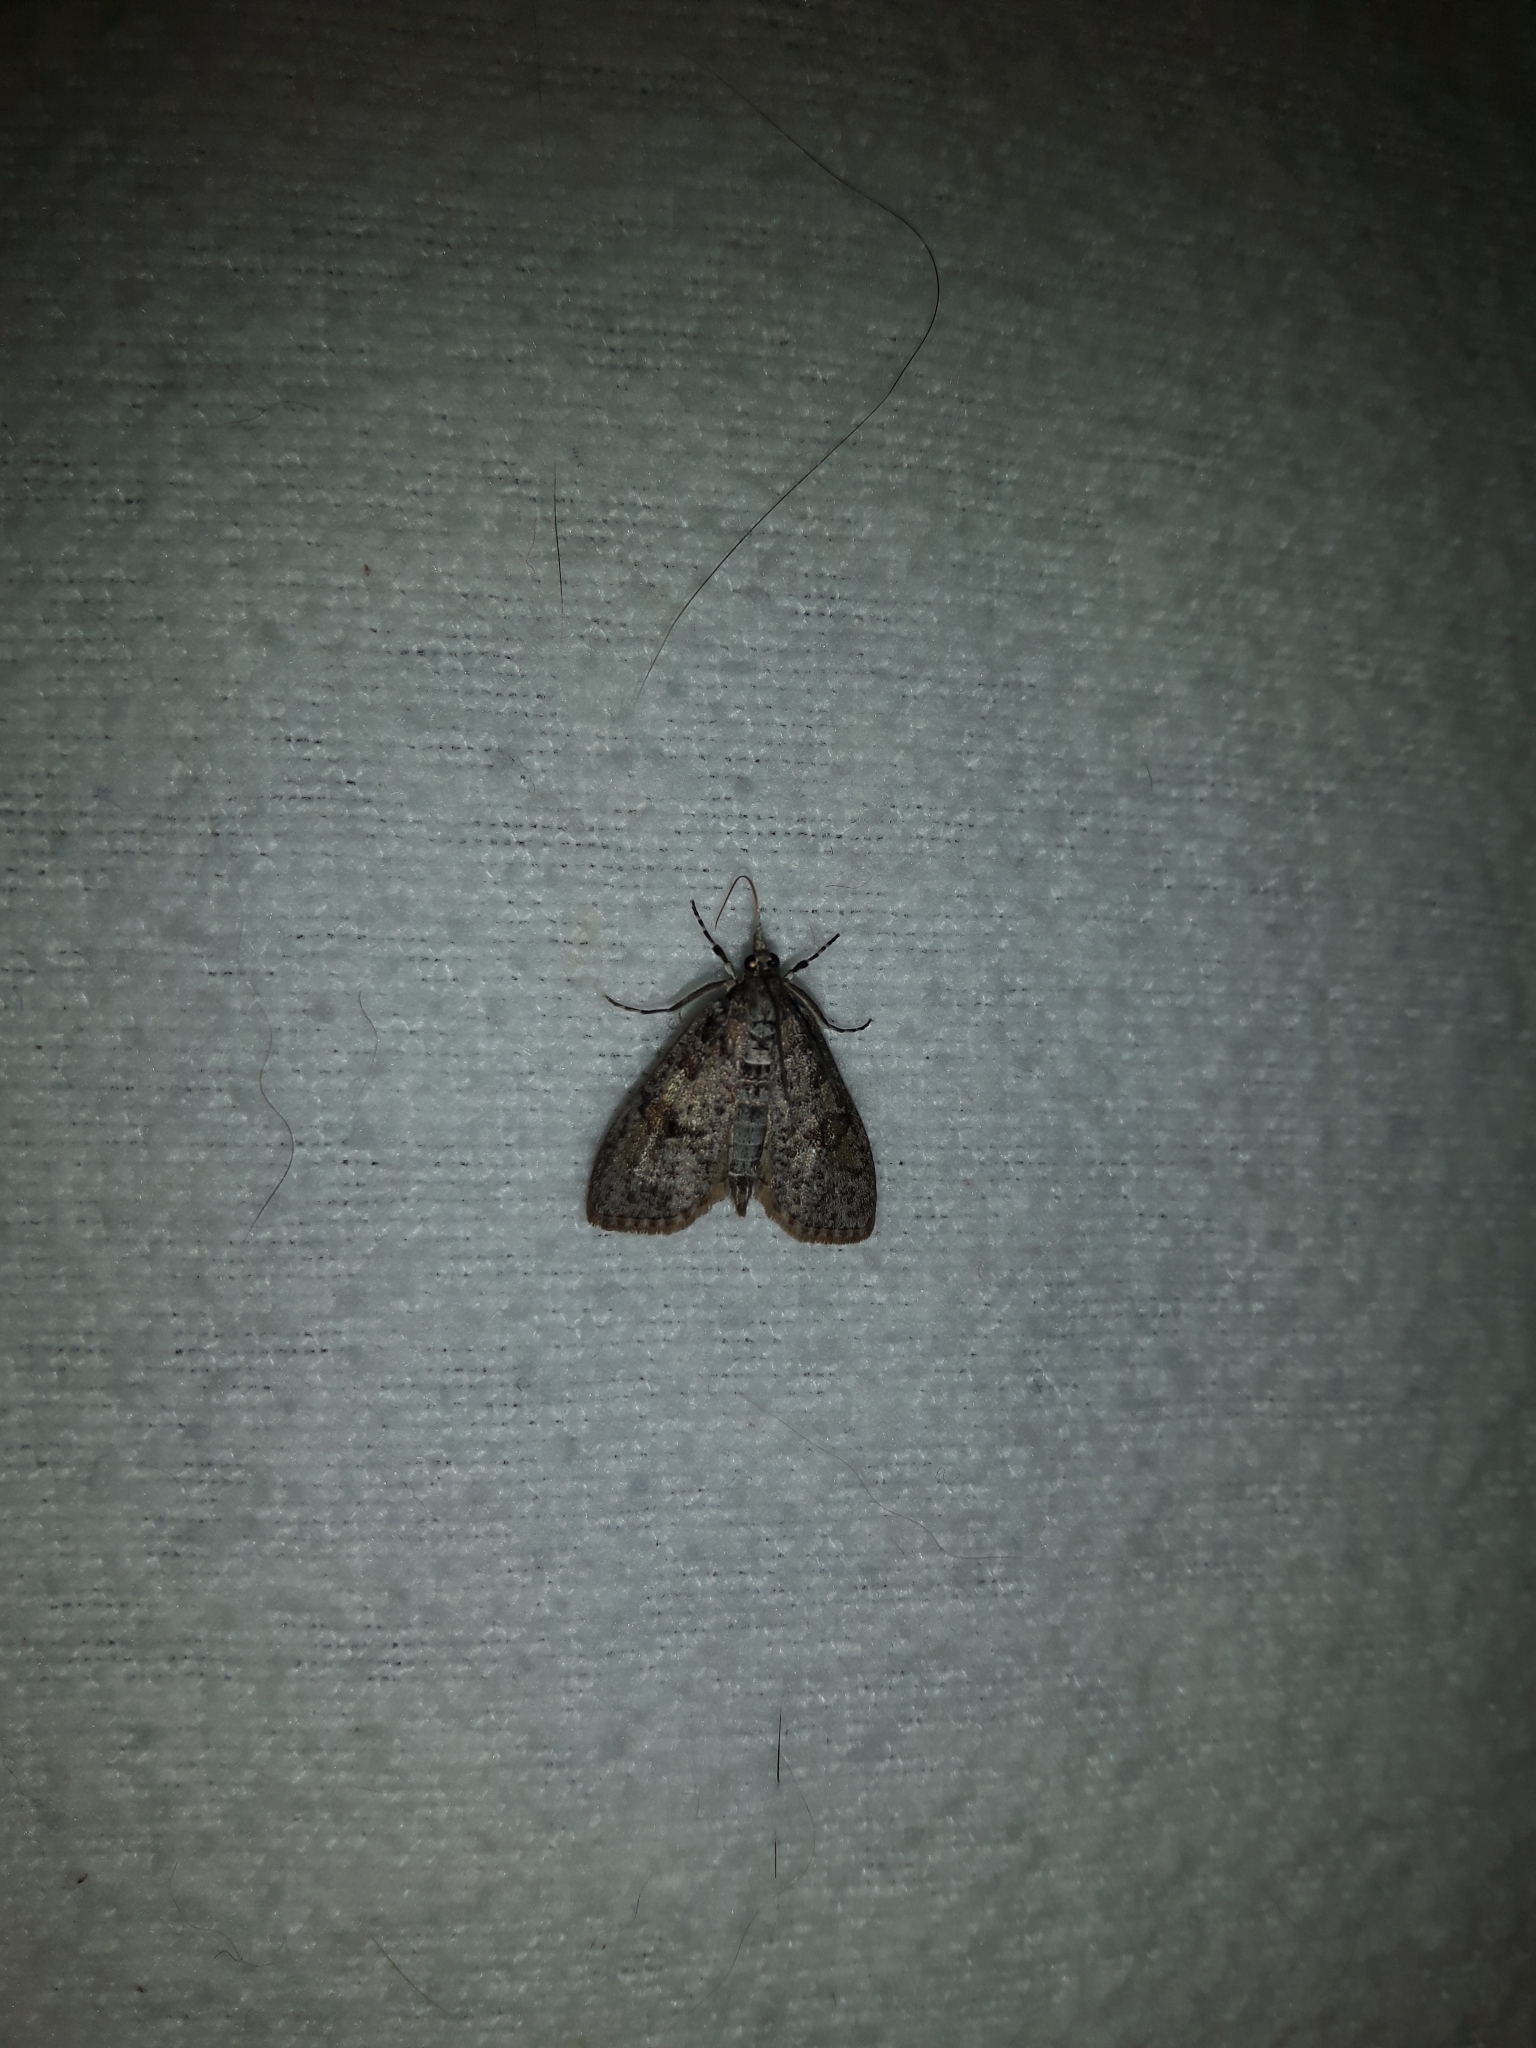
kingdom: Animalia
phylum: Arthropoda
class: Insecta
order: Lepidoptera
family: Crambidae
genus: Palpita
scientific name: Palpita magniferalis
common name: Splendid palpita moth
